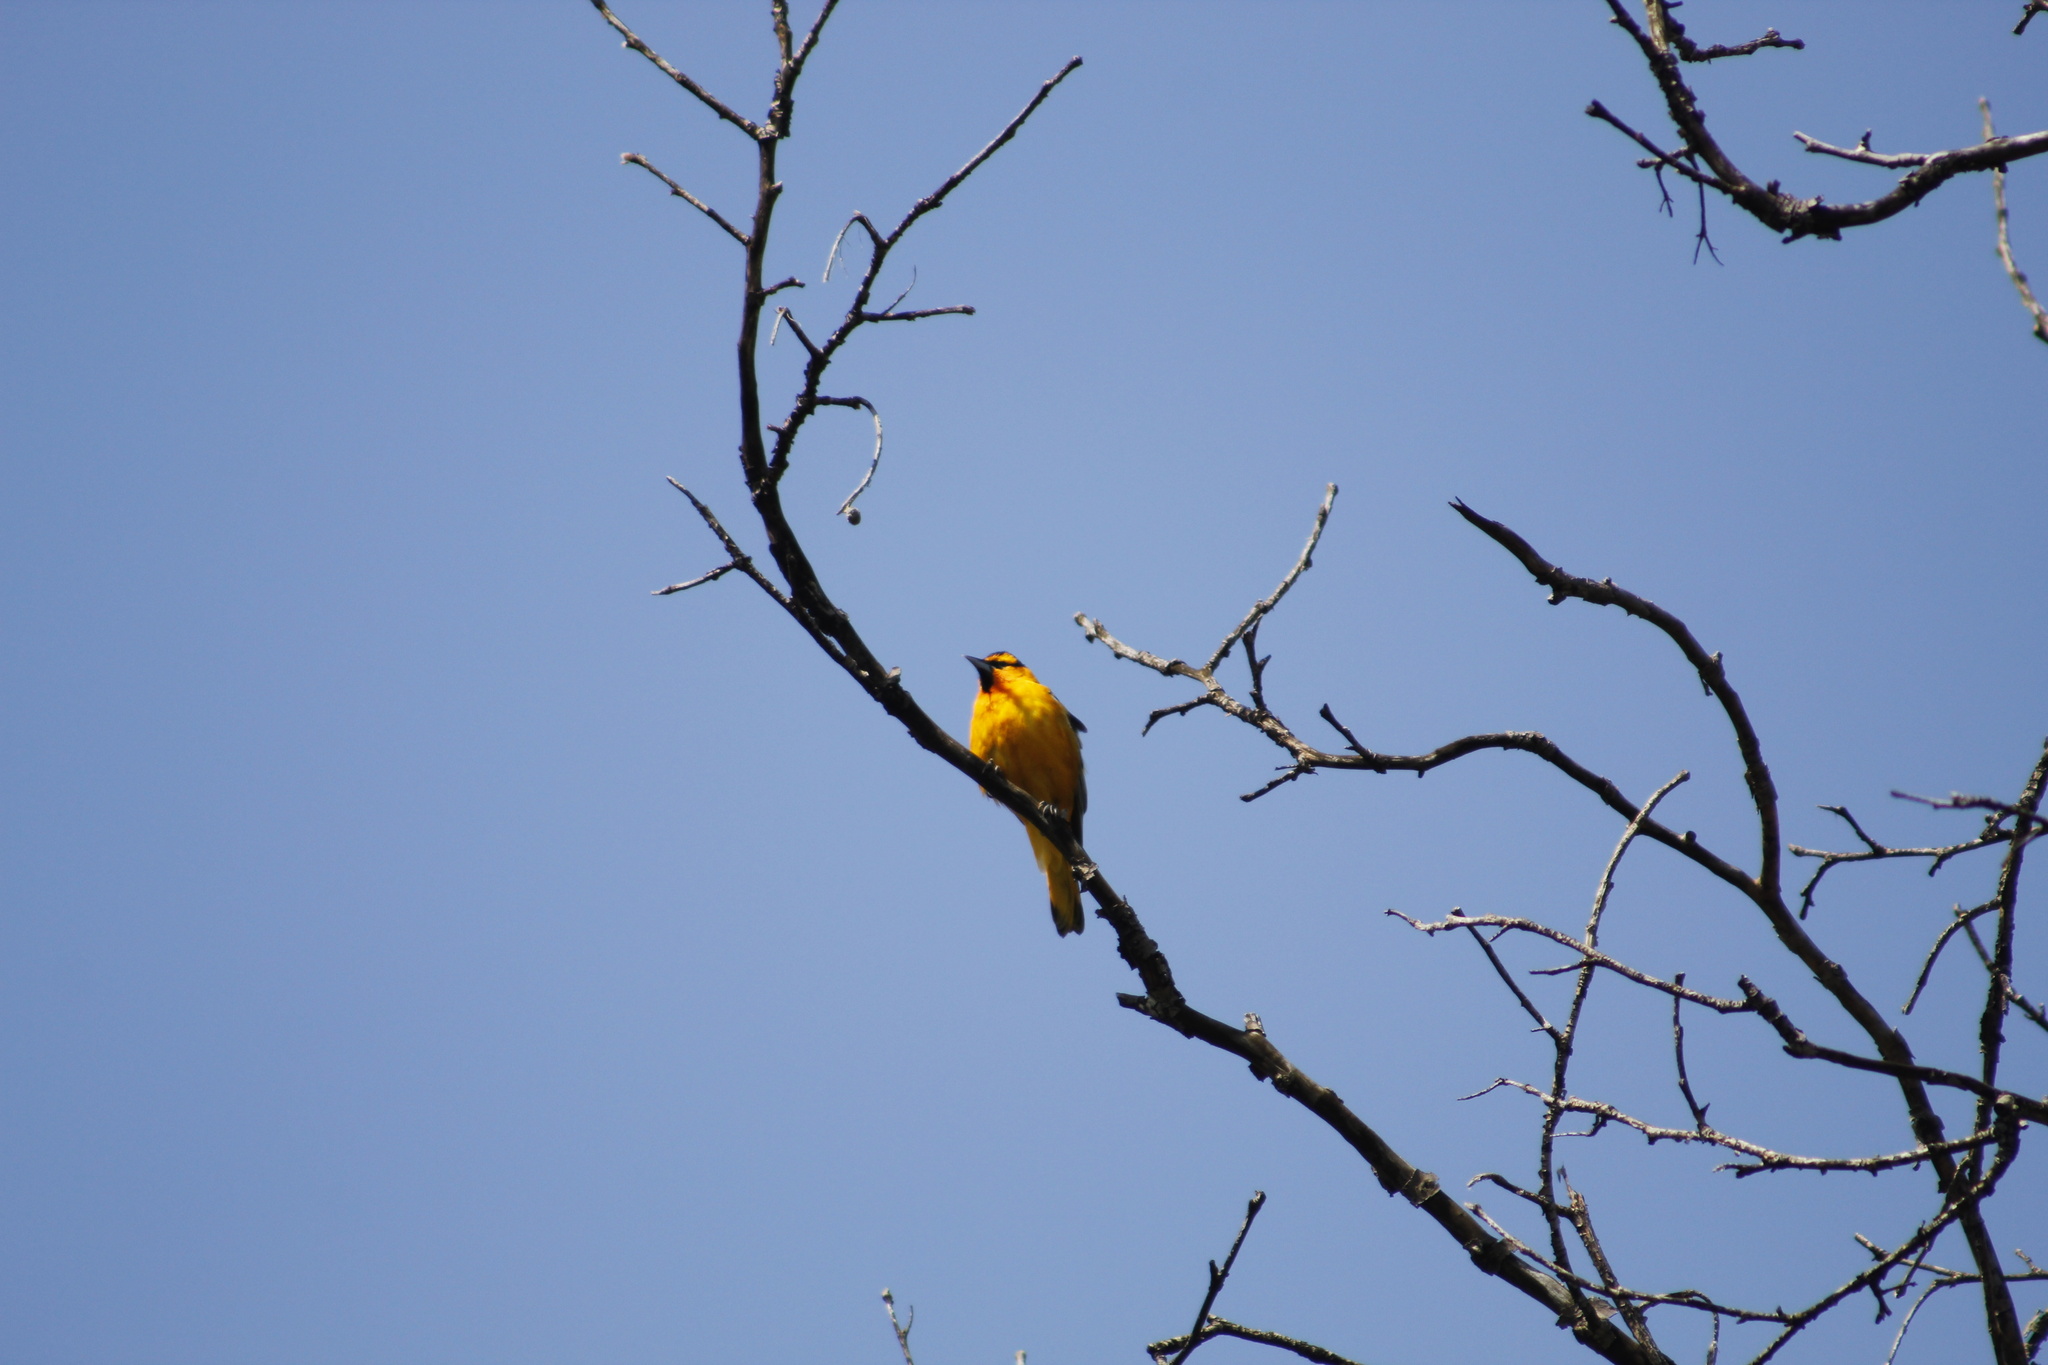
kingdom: Animalia
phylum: Chordata
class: Aves
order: Passeriformes
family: Icteridae
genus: Icterus
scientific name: Icterus bullockii
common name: Bullock's oriole
